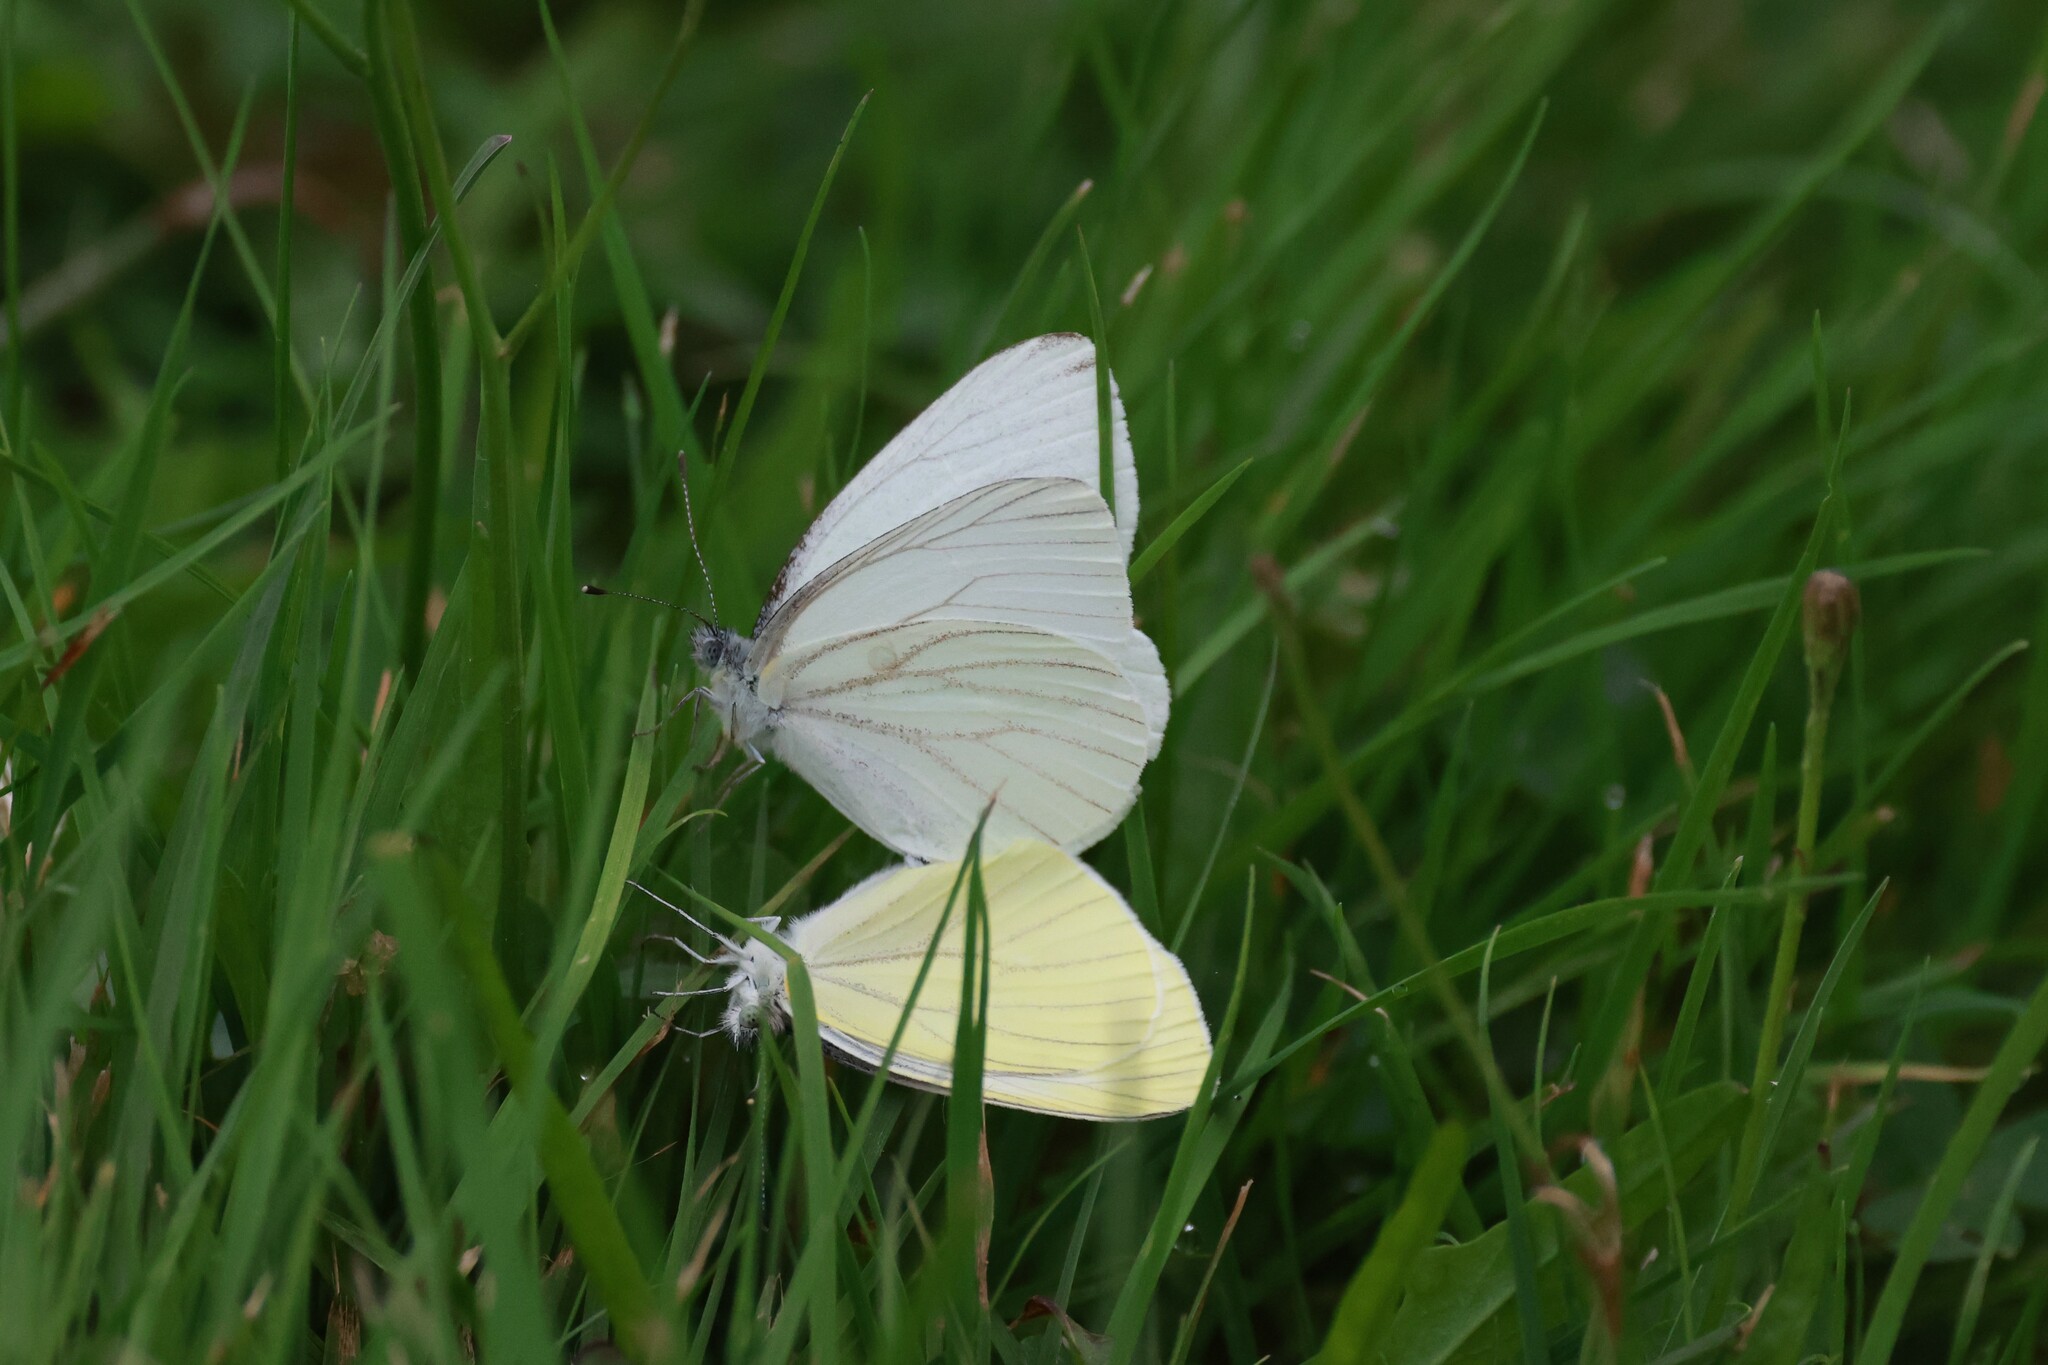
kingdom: Animalia
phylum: Arthropoda
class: Insecta
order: Lepidoptera
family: Pieridae
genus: Pieris
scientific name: Pieris oleracea
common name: Mustard white
